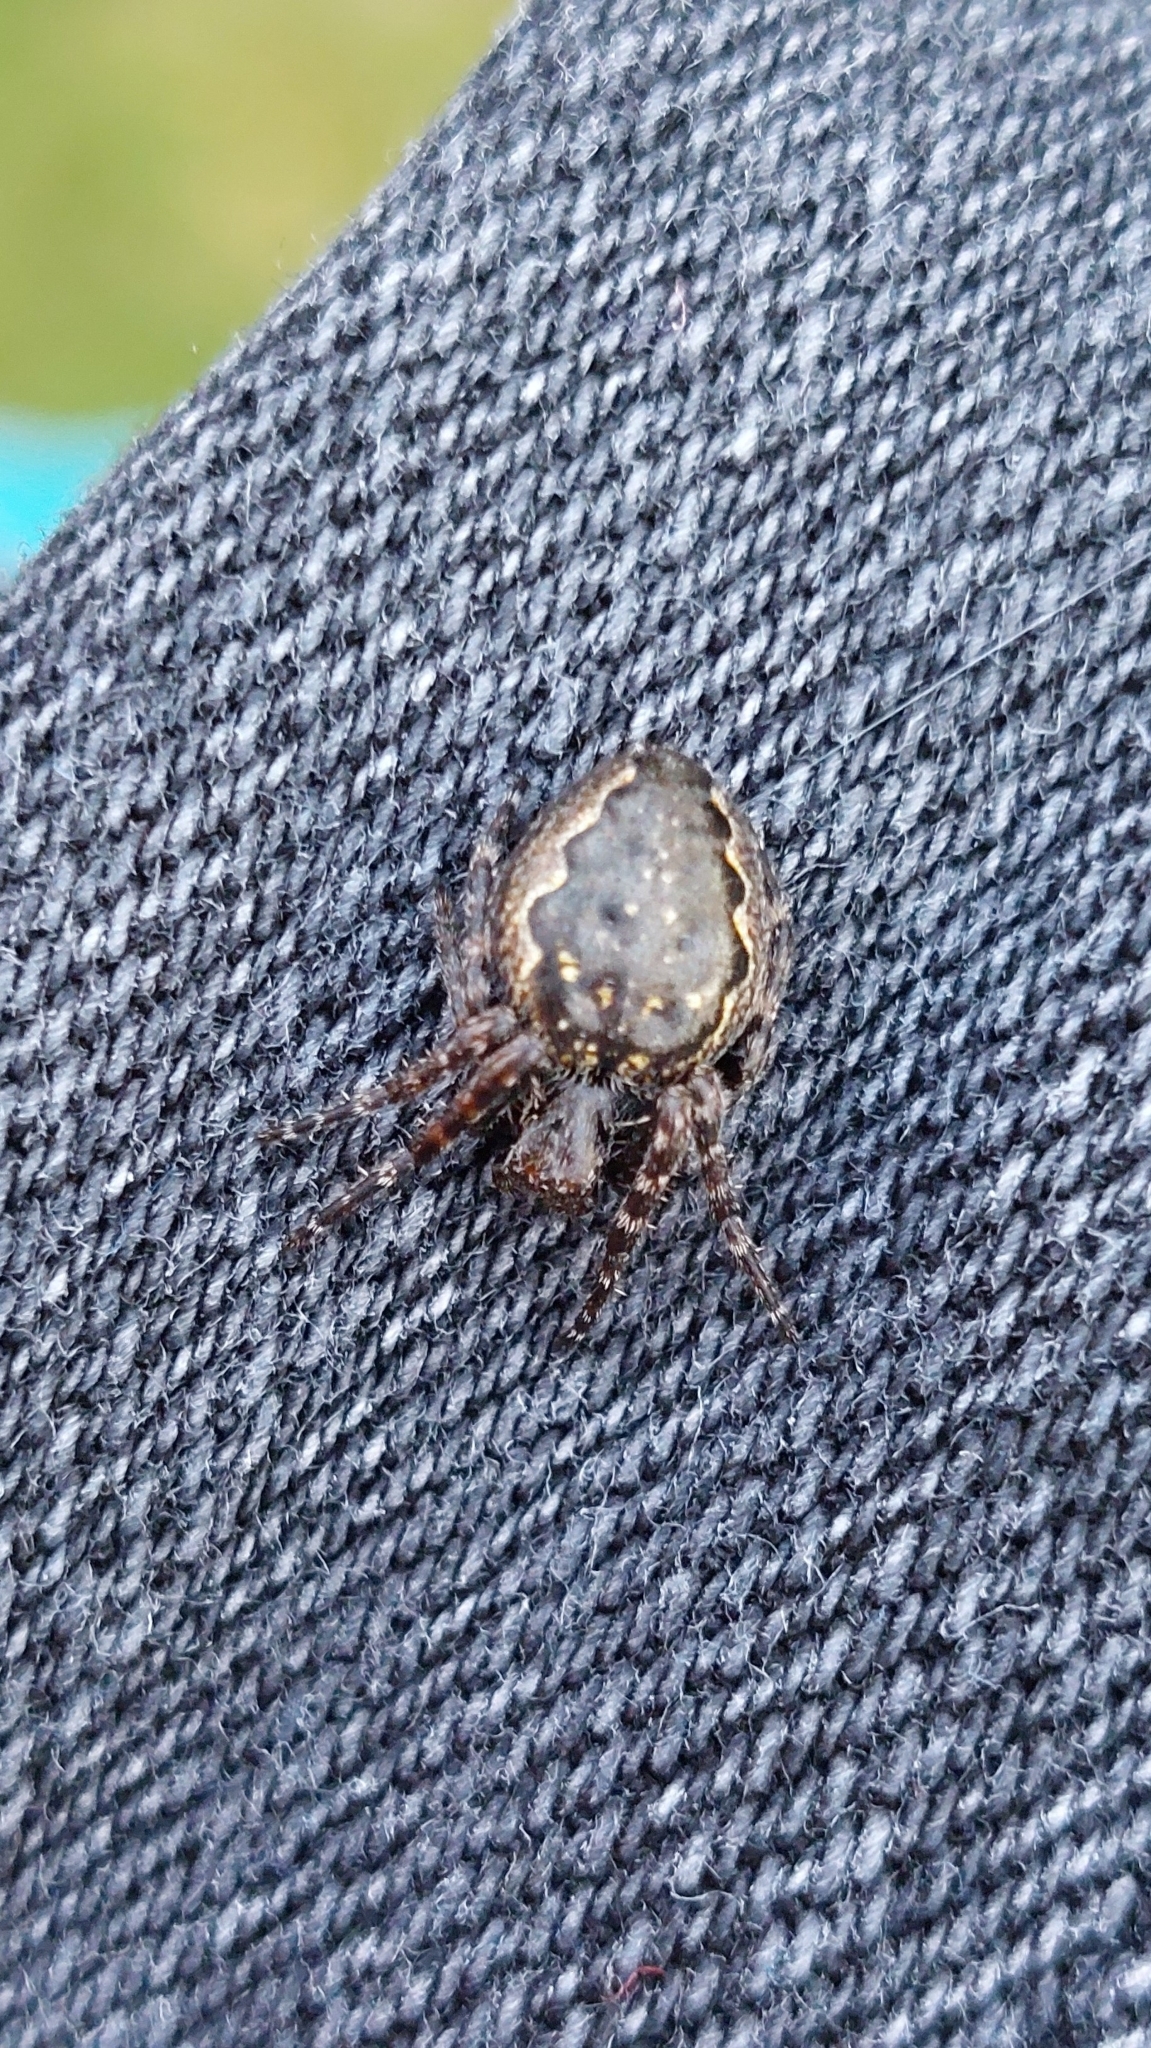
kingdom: Animalia
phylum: Arthropoda
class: Arachnida
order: Araneae
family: Araneidae
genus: Nuctenea
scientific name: Nuctenea umbratica
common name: Toad spider
